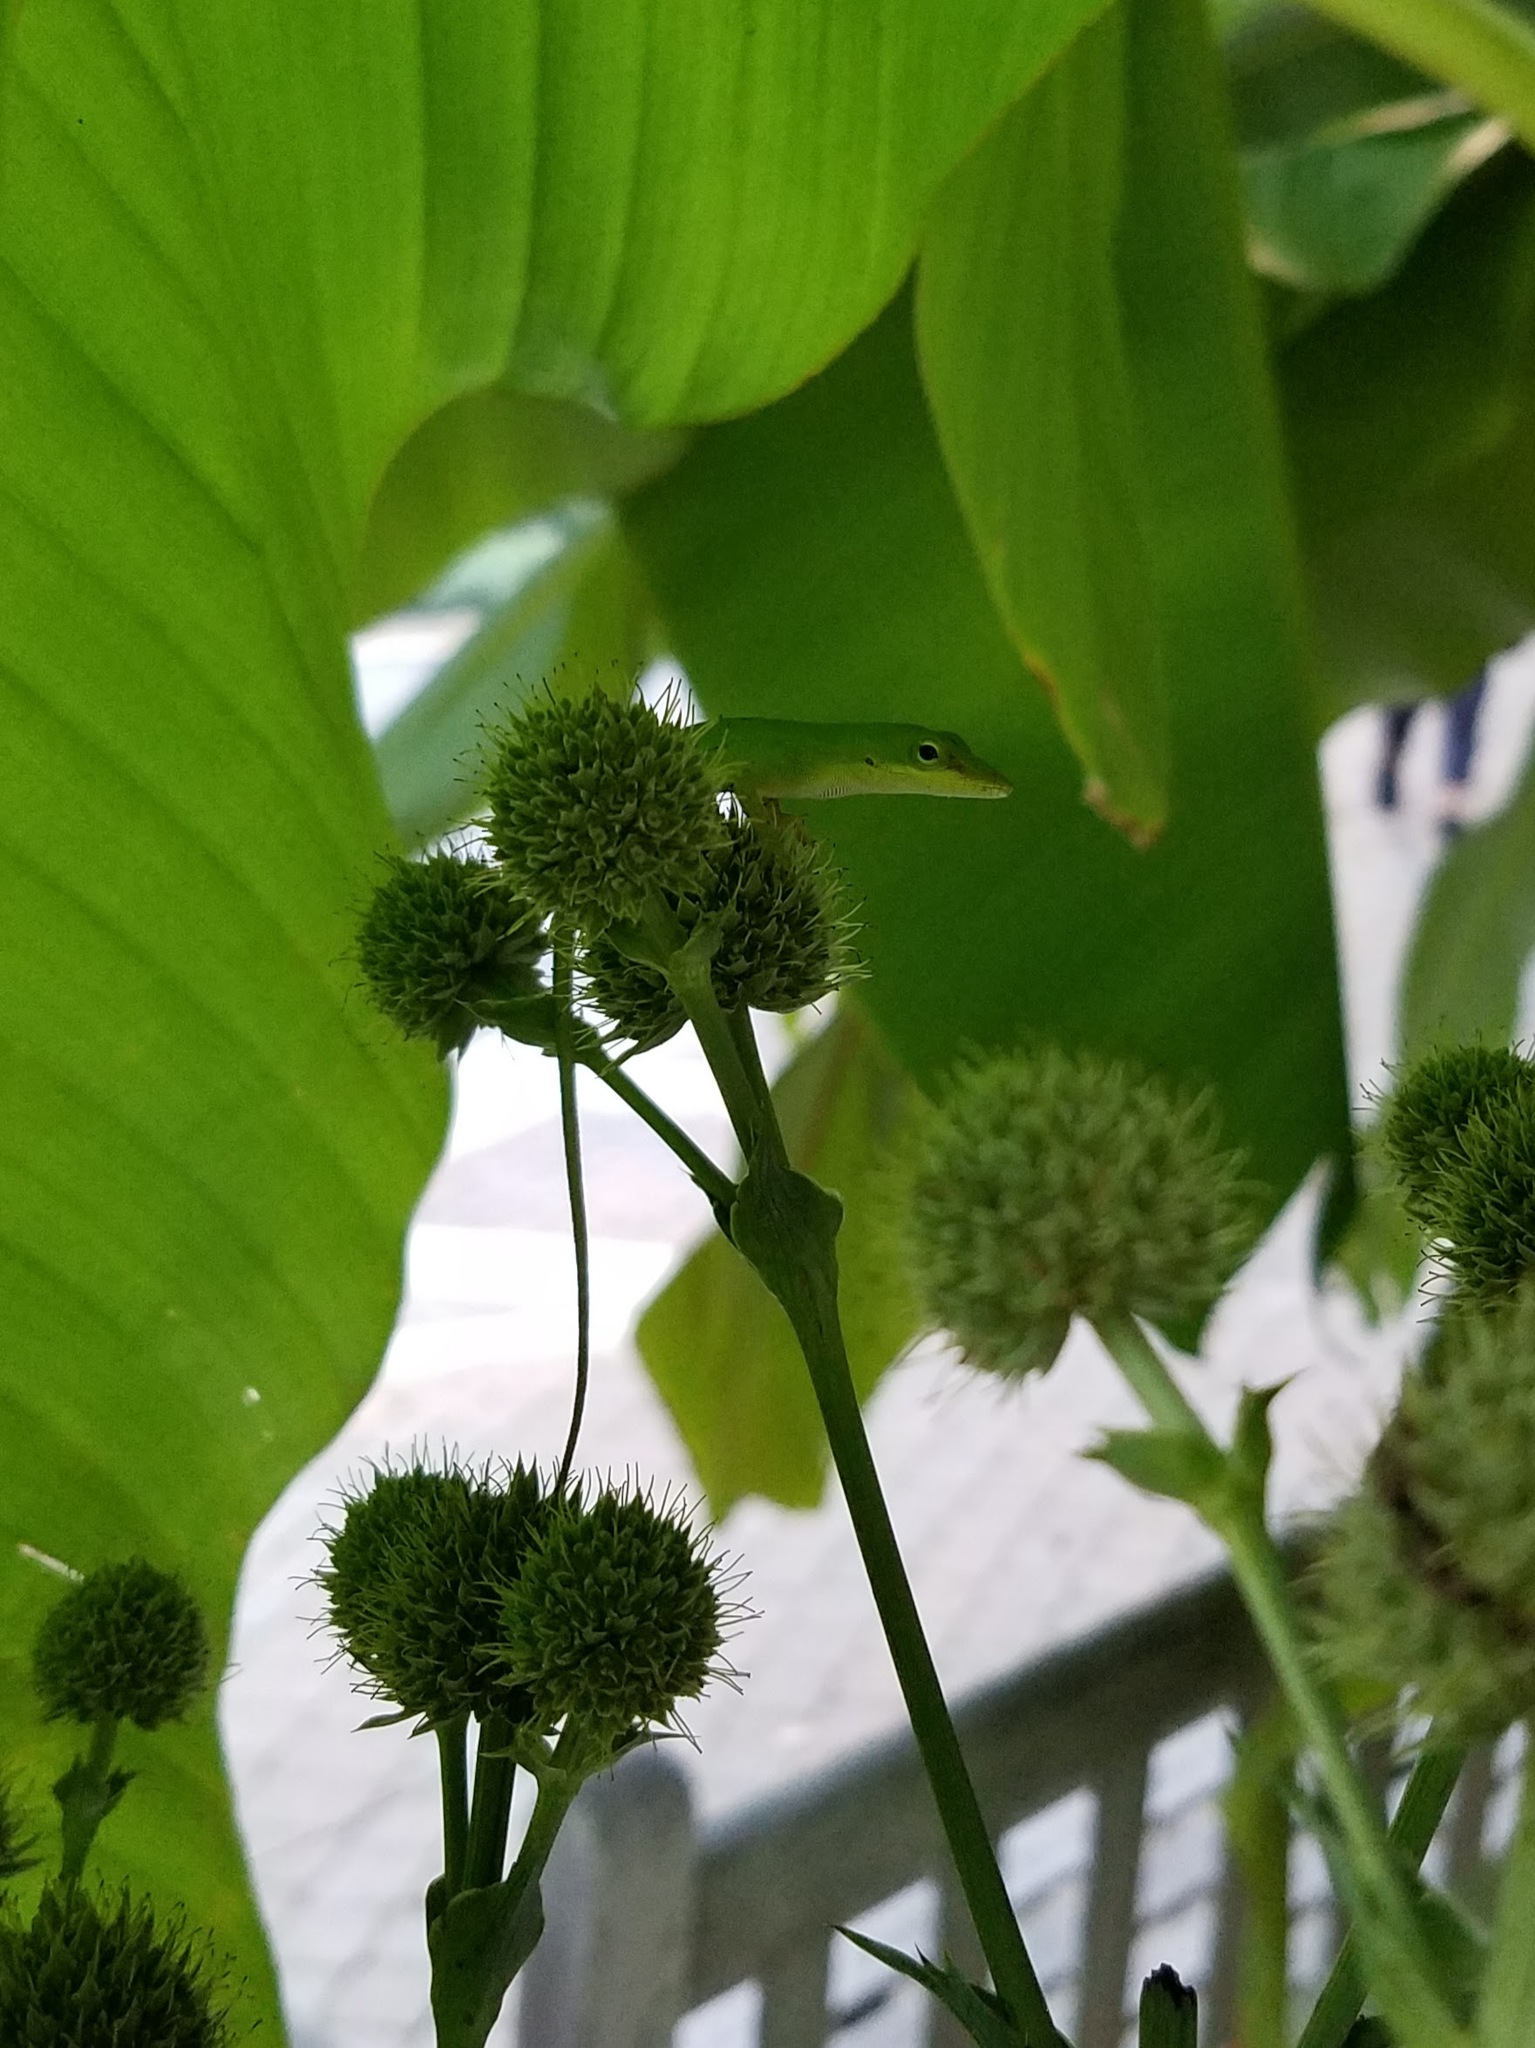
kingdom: Animalia
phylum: Chordata
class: Squamata
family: Dactyloidae
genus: Anolis
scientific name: Anolis carolinensis
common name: Green anole
